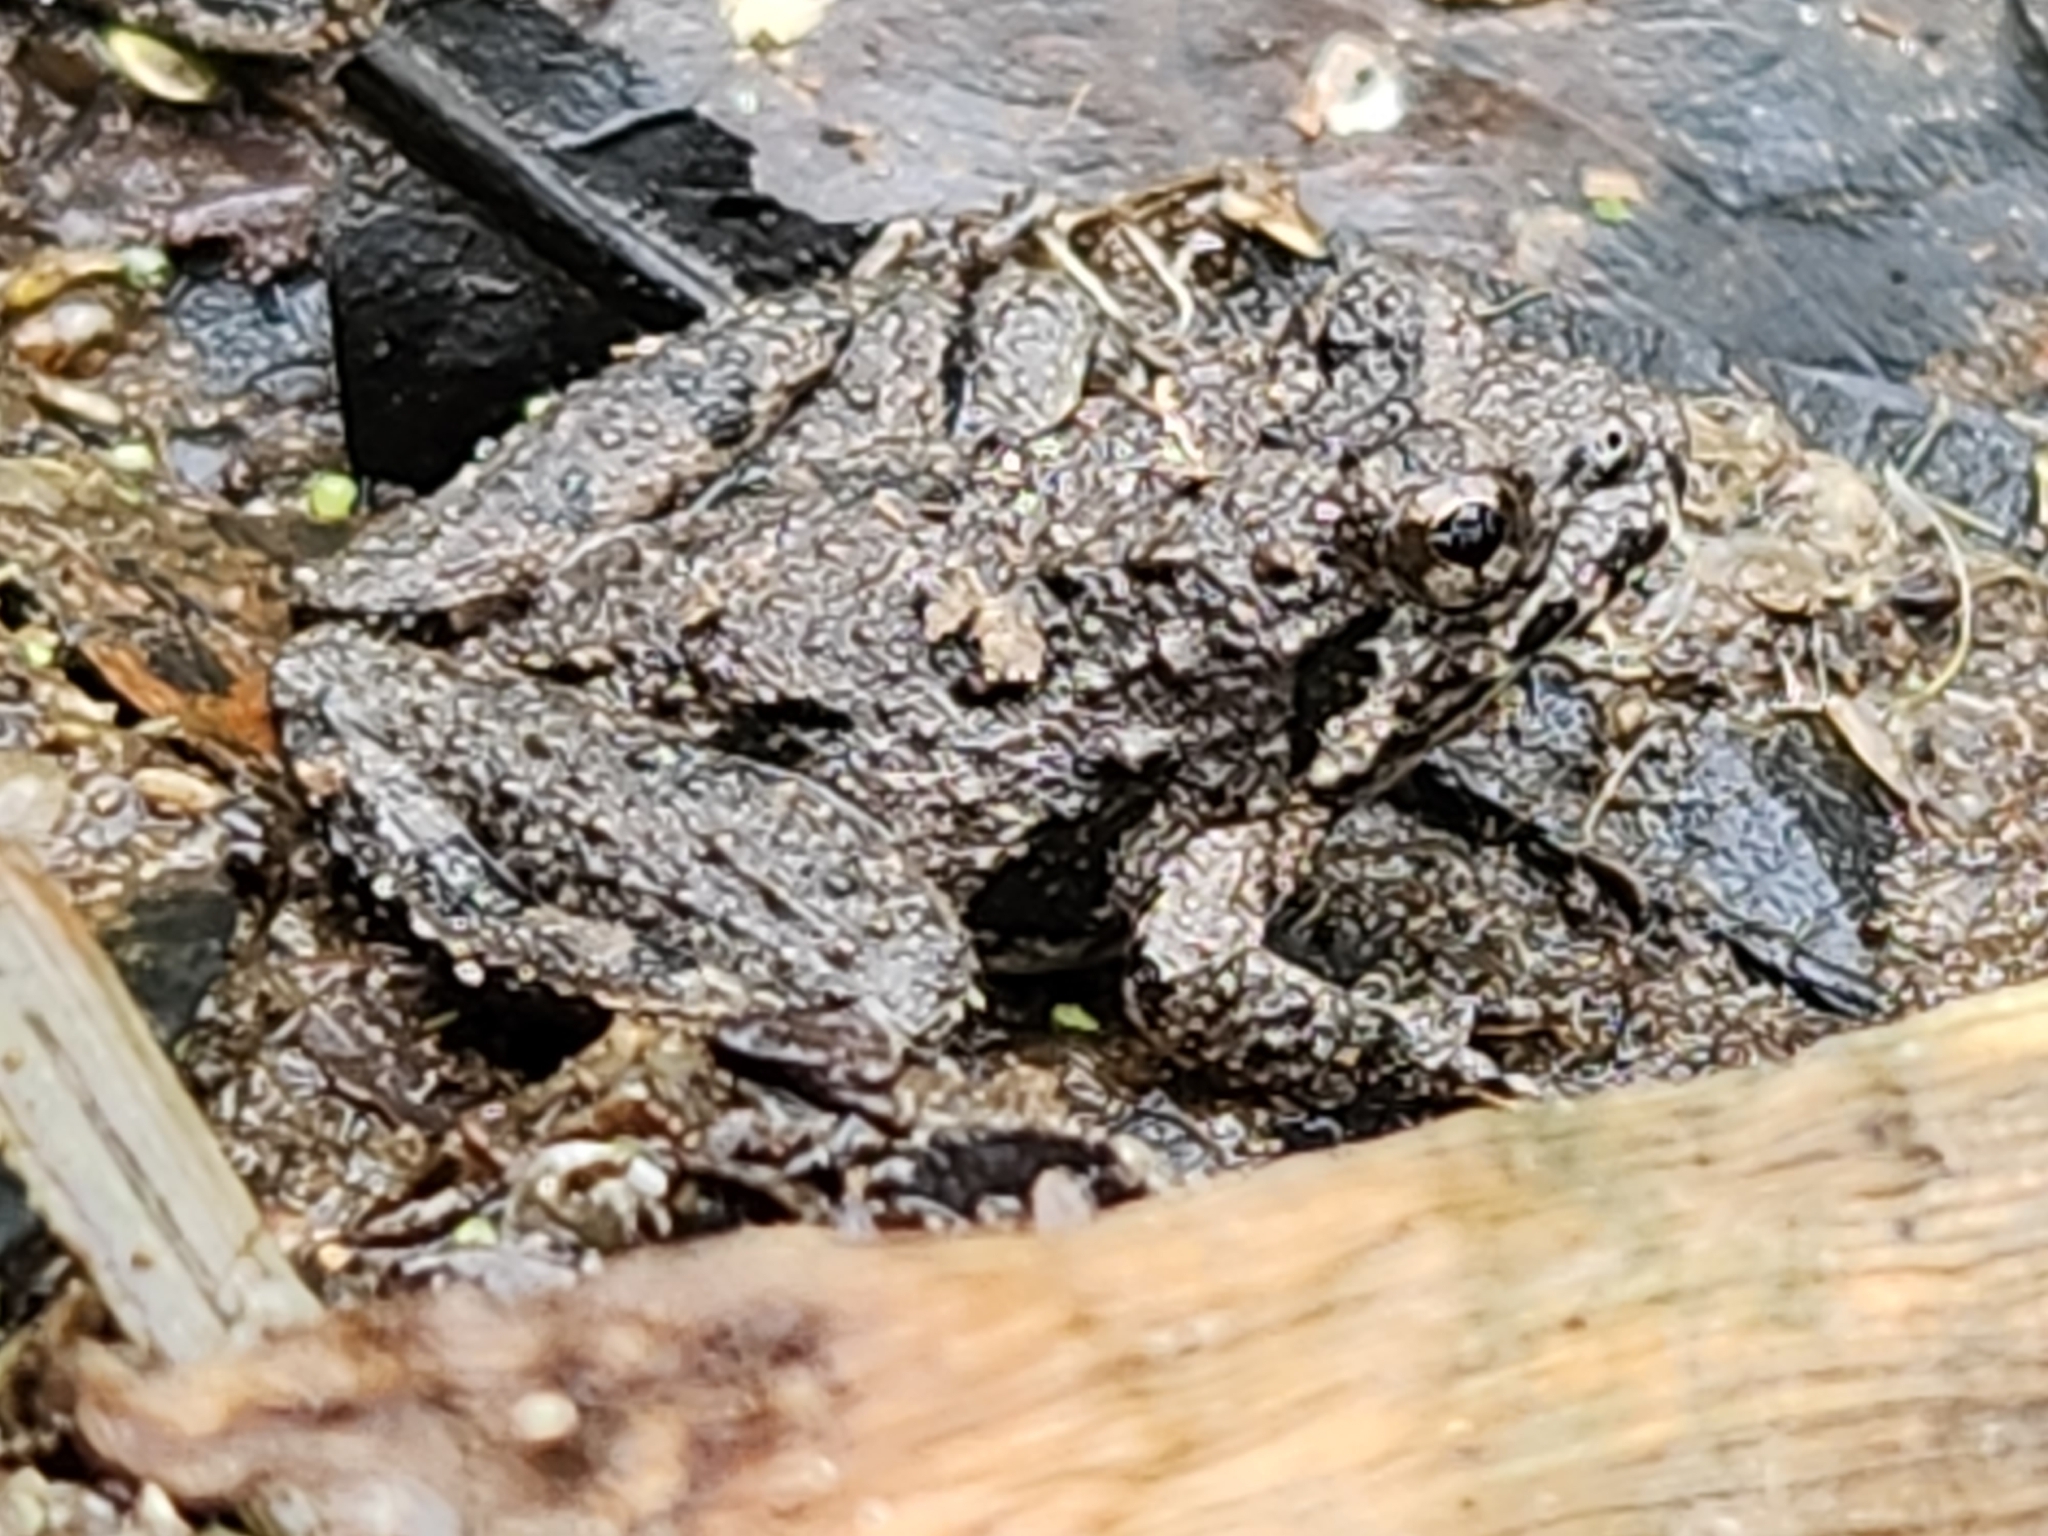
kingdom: Animalia
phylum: Chordata
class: Amphibia
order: Anura
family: Hylidae
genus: Acris
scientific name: Acris blanchardi
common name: Blanchard's cricket frog
